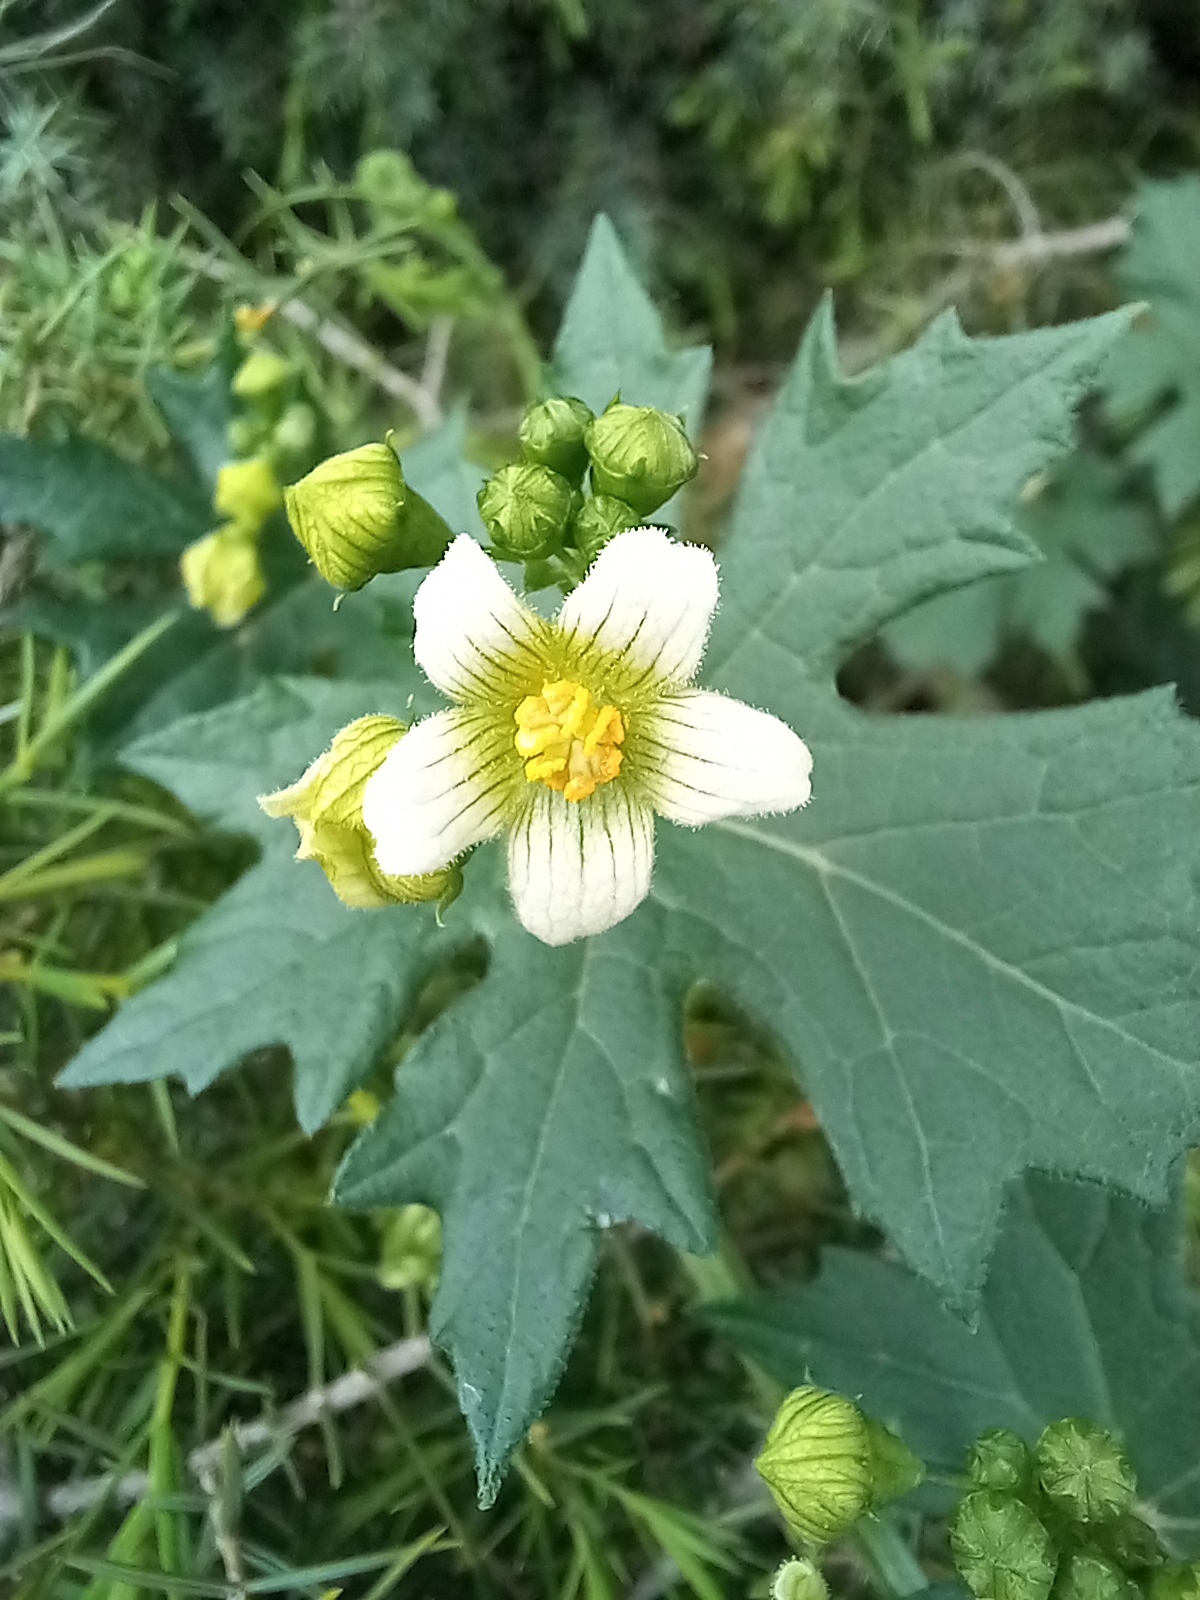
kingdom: Plantae
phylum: Tracheophyta
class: Magnoliopsida
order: Cucurbitales
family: Cucurbitaceae
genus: Bryonia
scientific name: Bryonia dioica
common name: White bryony
